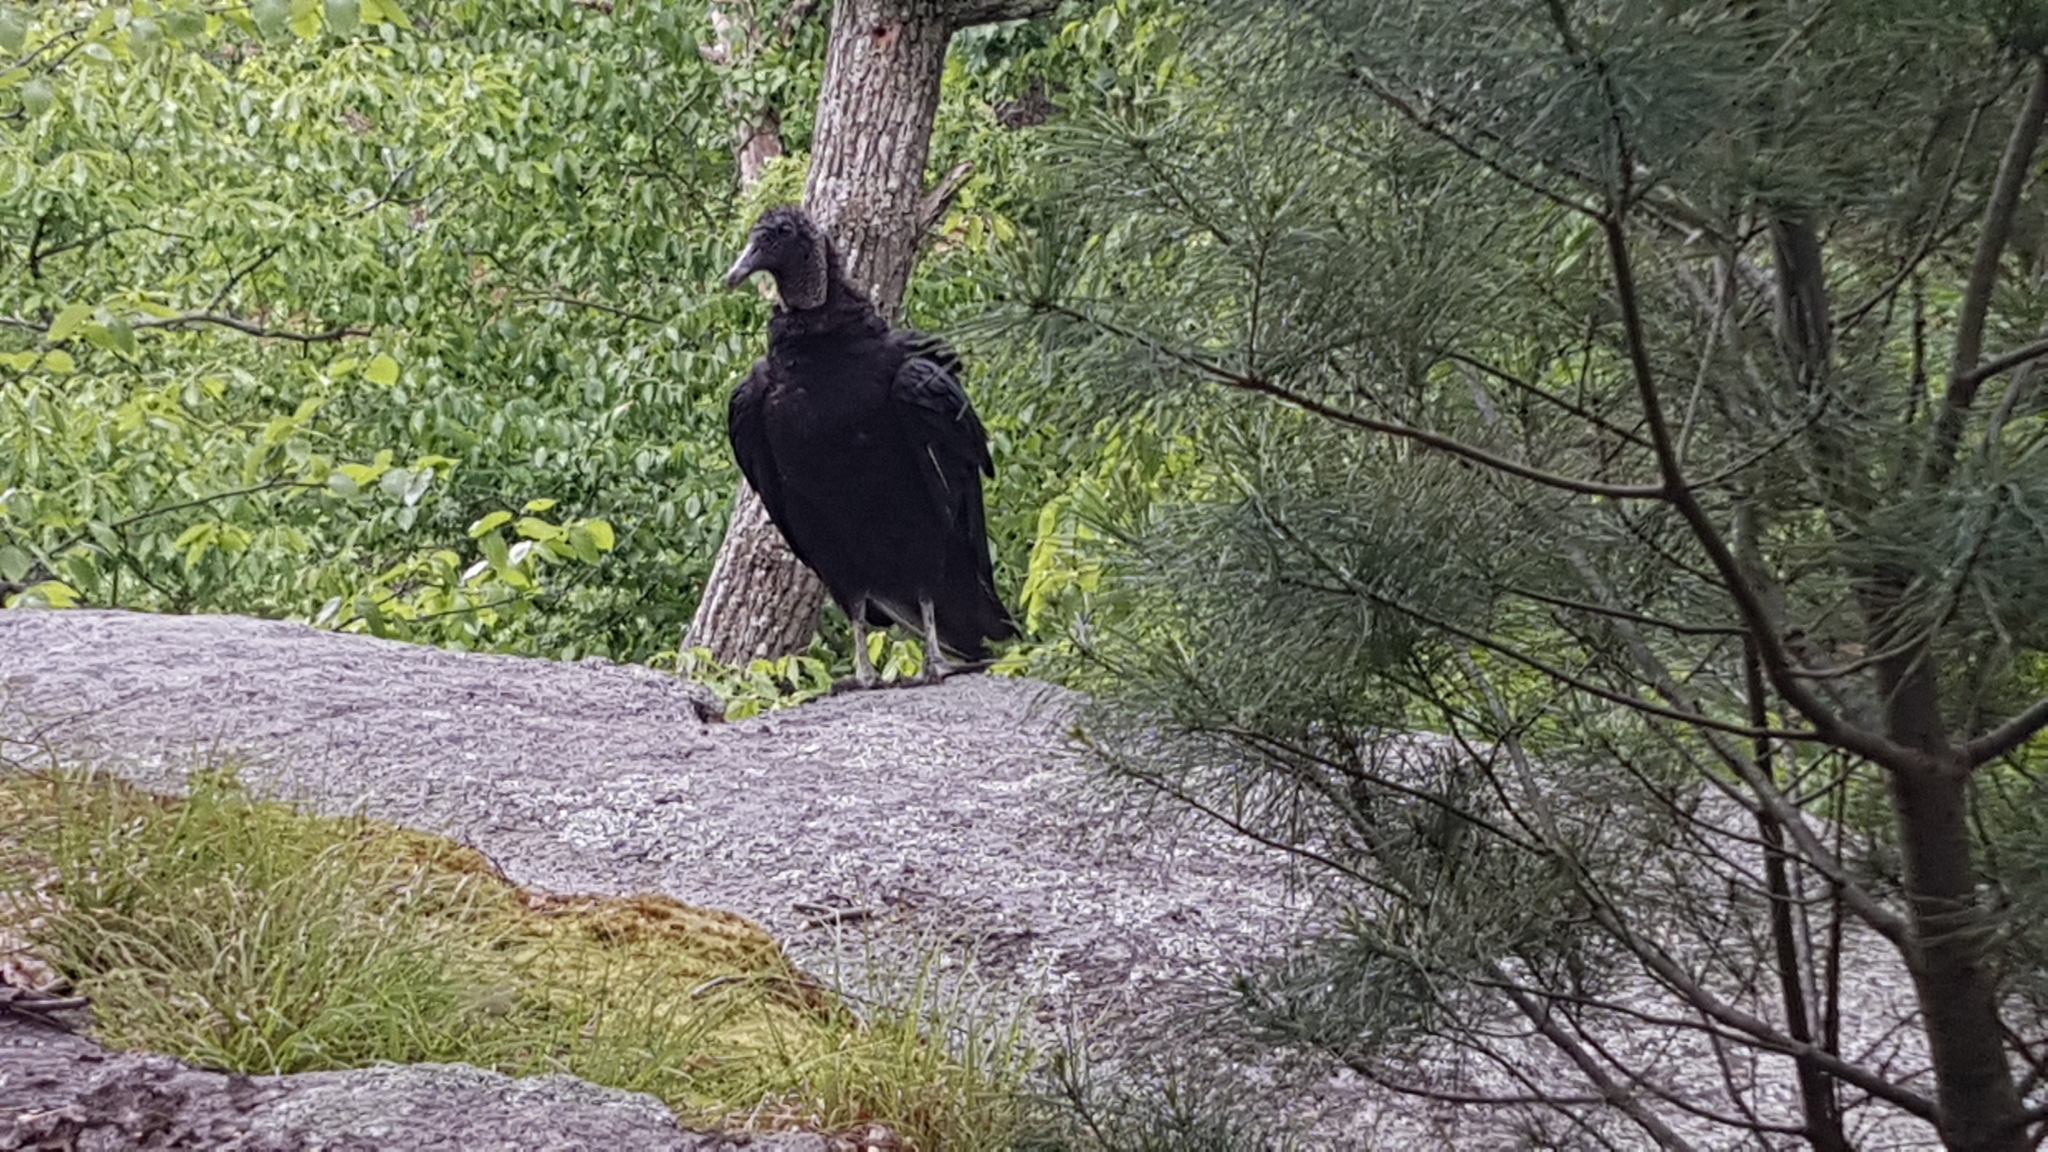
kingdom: Animalia
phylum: Chordata
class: Aves
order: Accipitriformes
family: Cathartidae
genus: Coragyps
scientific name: Coragyps atratus
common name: Black vulture
